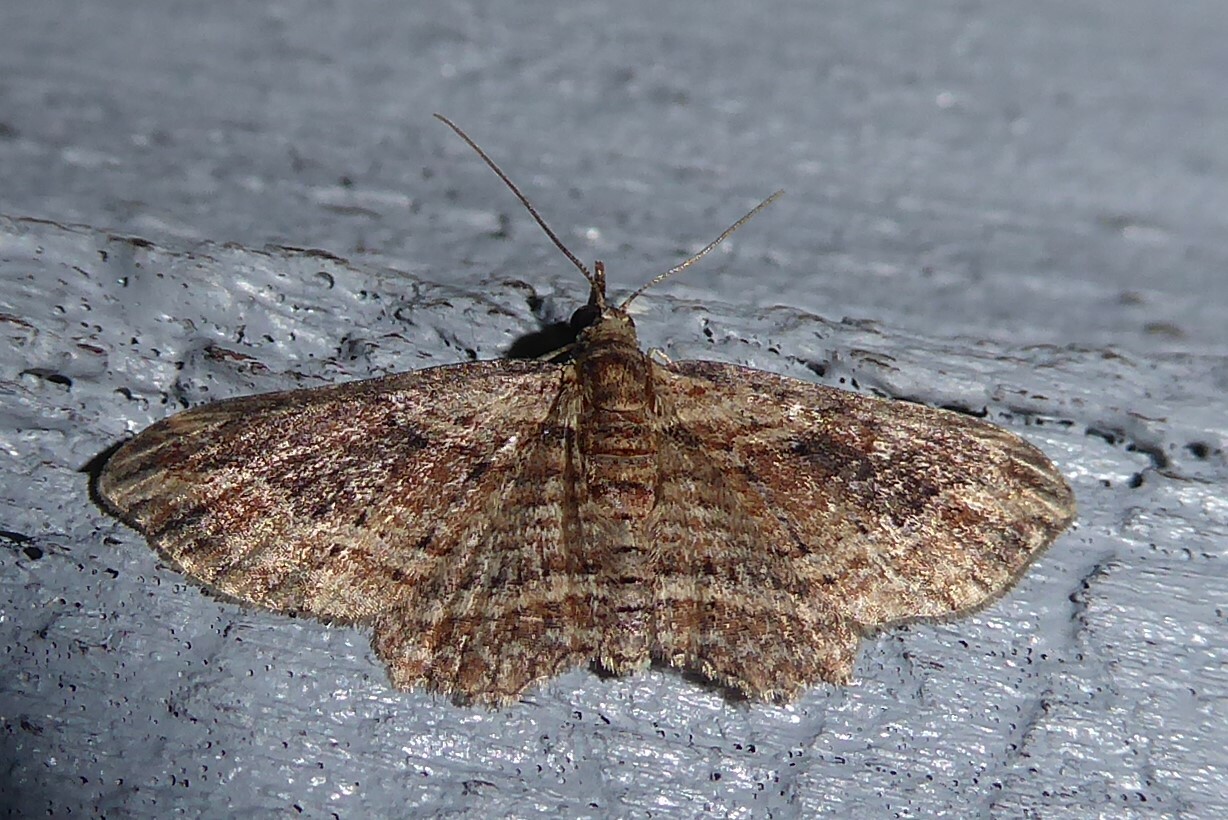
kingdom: Animalia
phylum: Arthropoda
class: Insecta
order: Lepidoptera
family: Geometridae
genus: Chloroclystis
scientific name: Chloroclystis filata
